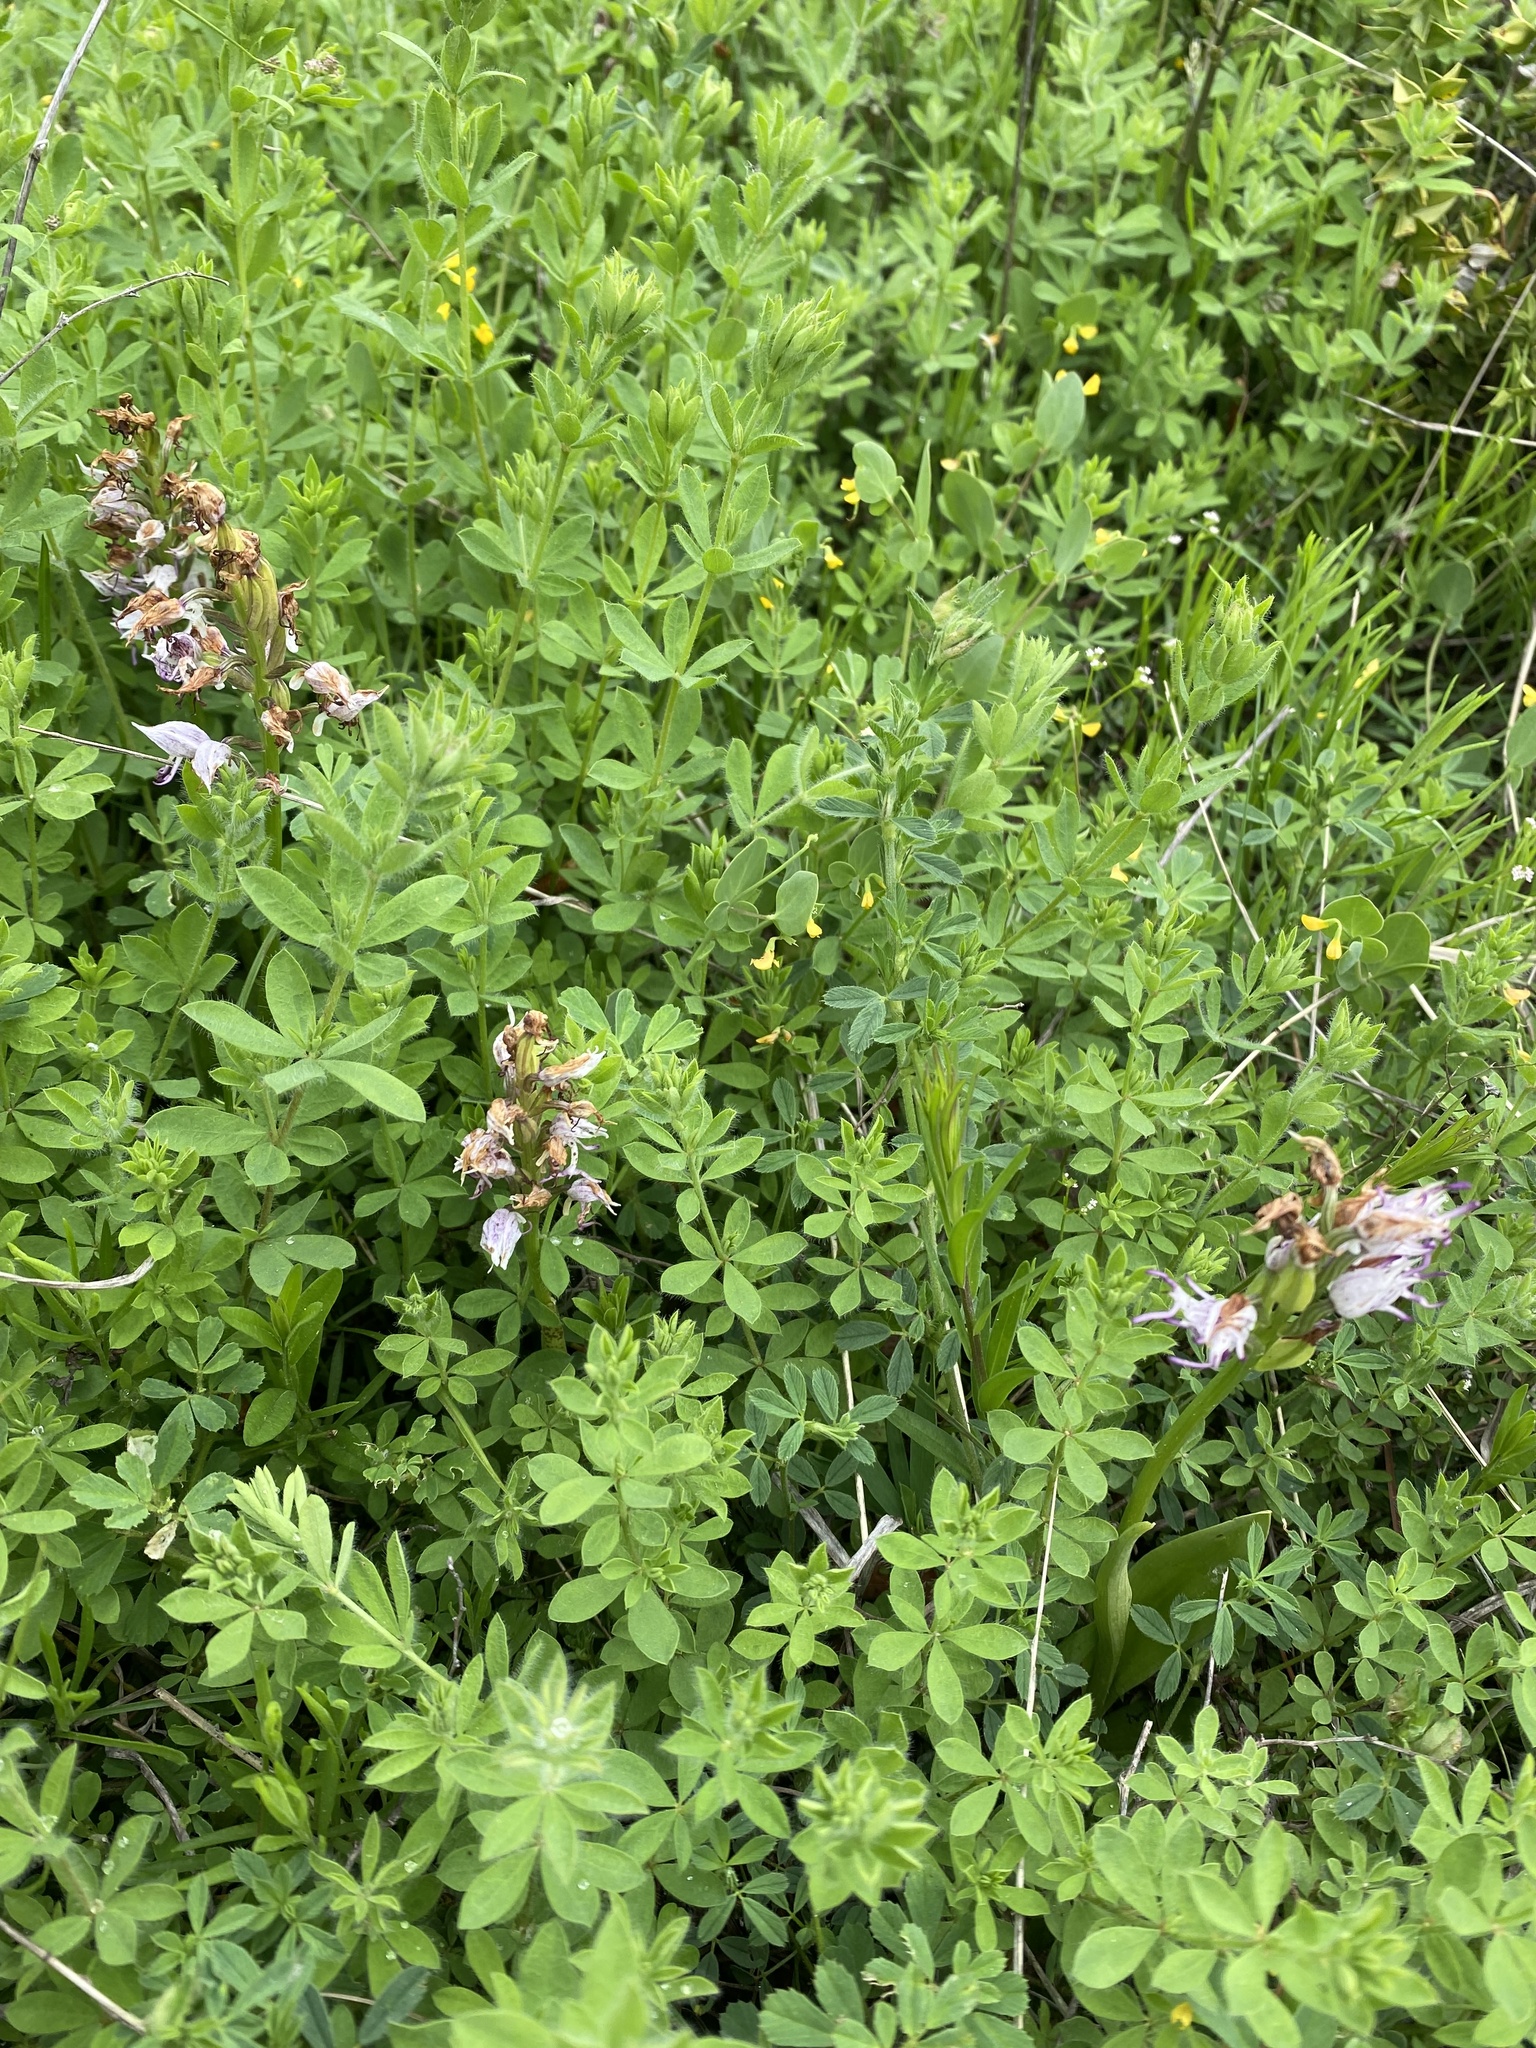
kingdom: Plantae
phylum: Tracheophyta
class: Liliopsida
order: Asparagales
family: Orchidaceae
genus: Orchis
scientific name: Orchis simia
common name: Monkey orchid
